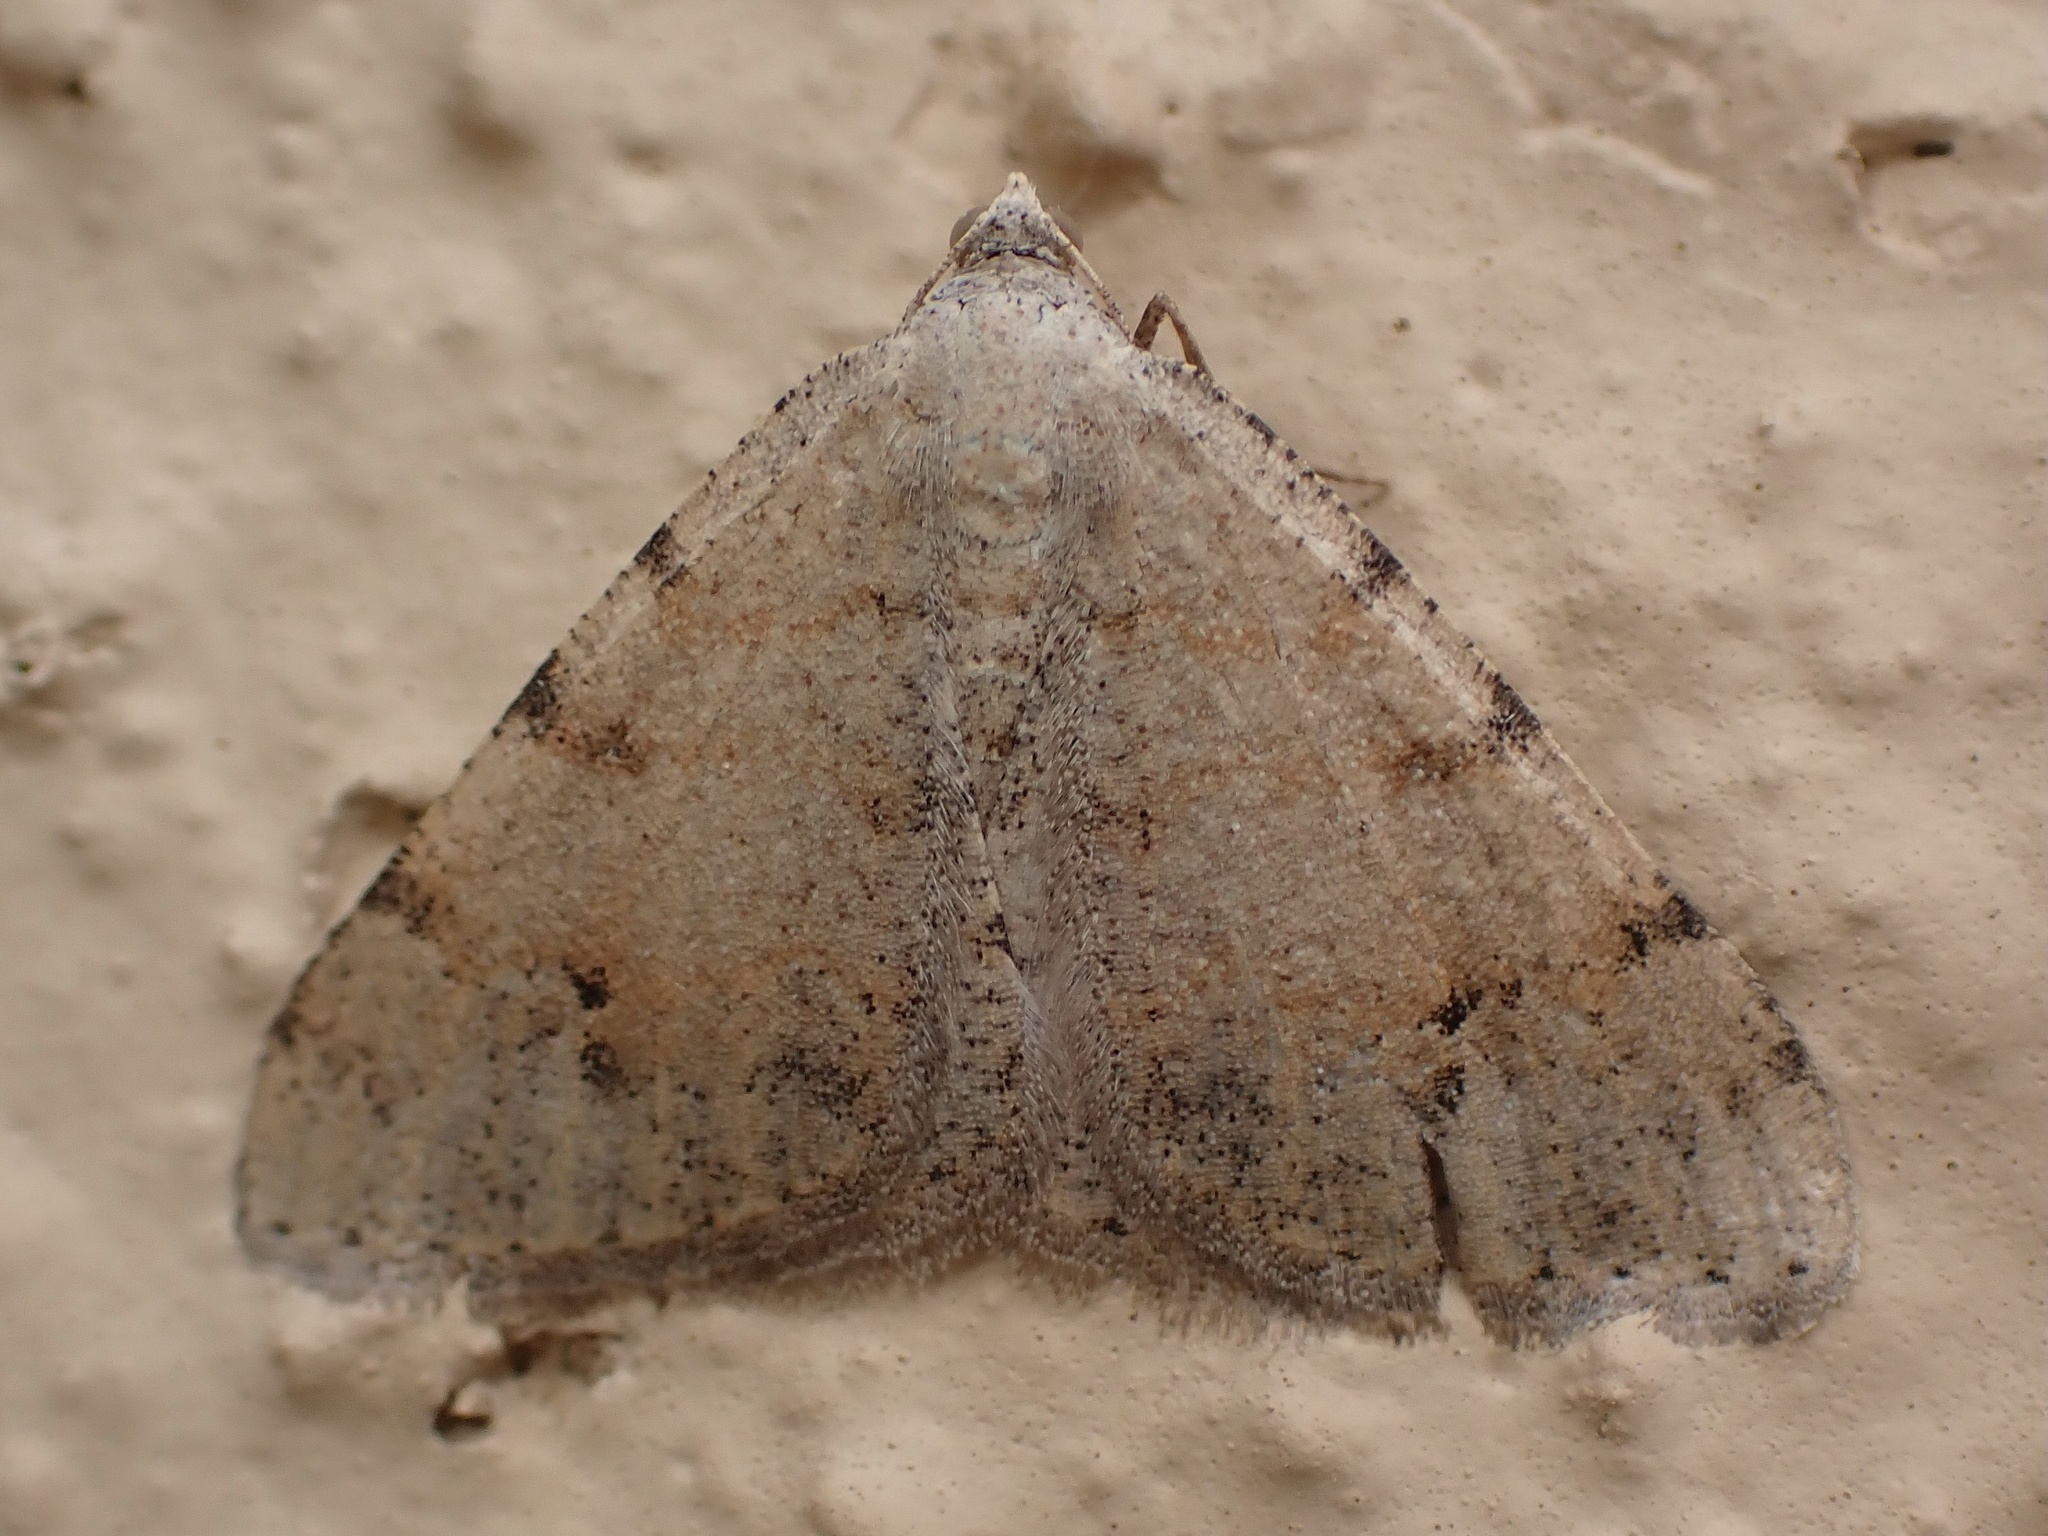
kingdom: Animalia
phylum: Arthropoda
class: Insecta
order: Lepidoptera
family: Geometridae
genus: Digrammia
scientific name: Digrammia colorata
